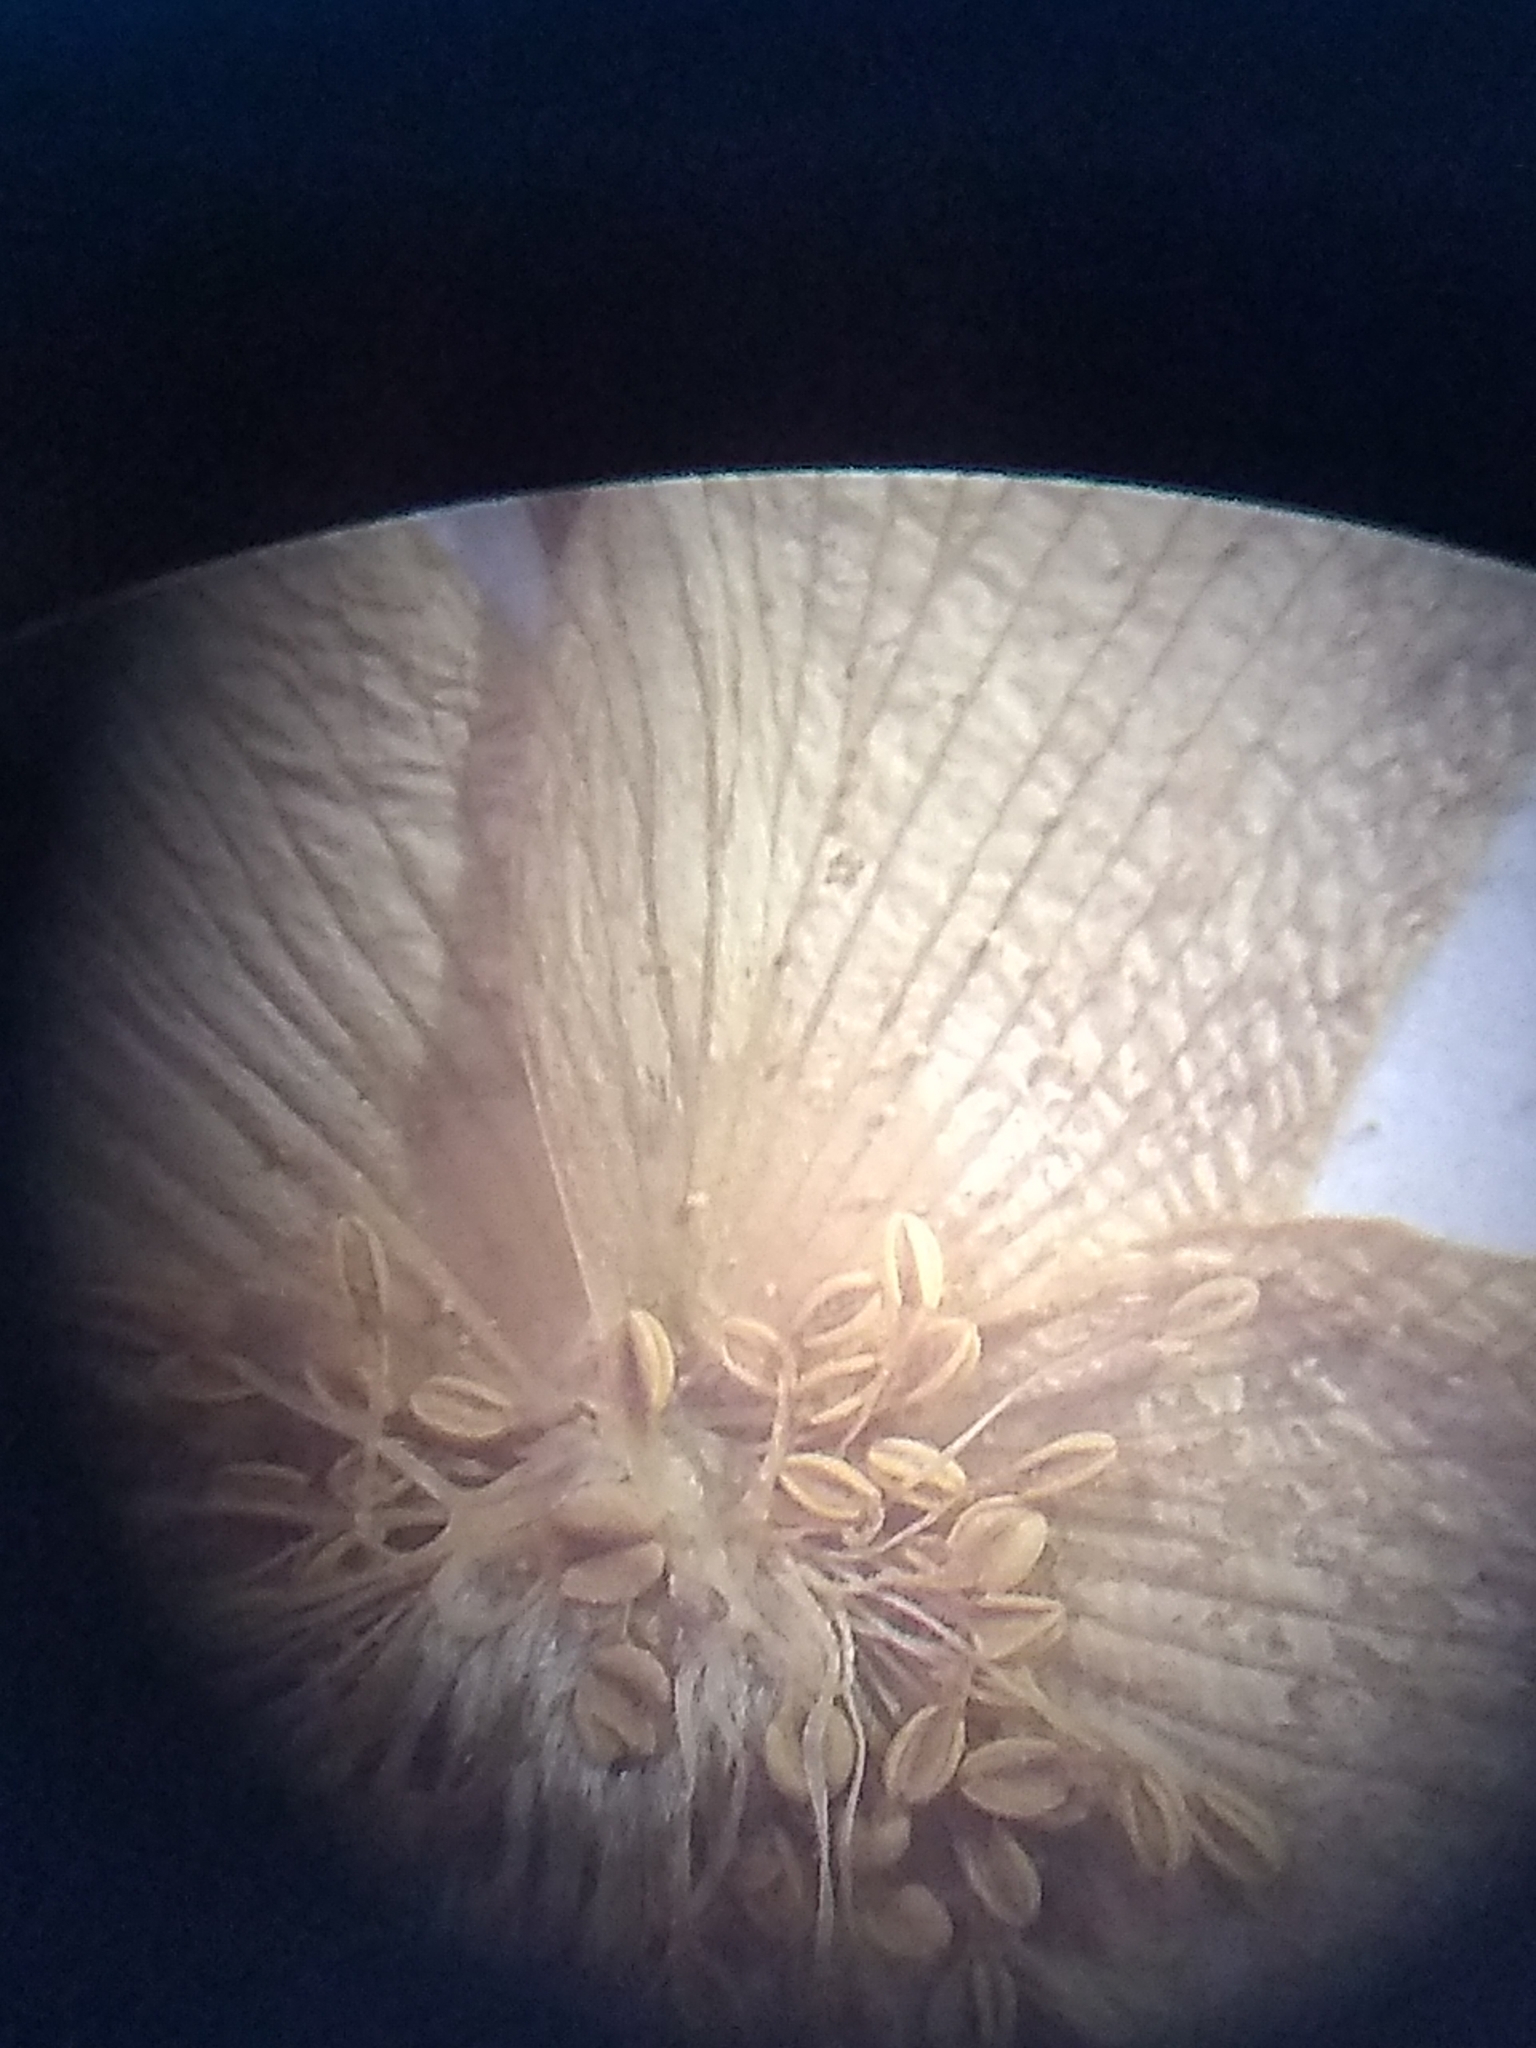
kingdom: Plantae
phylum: Tracheophyta
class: Magnoliopsida
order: Ranunculales
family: Ranunculaceae
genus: Anemone
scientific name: Anemone quinquefolia
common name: Wood anemone
